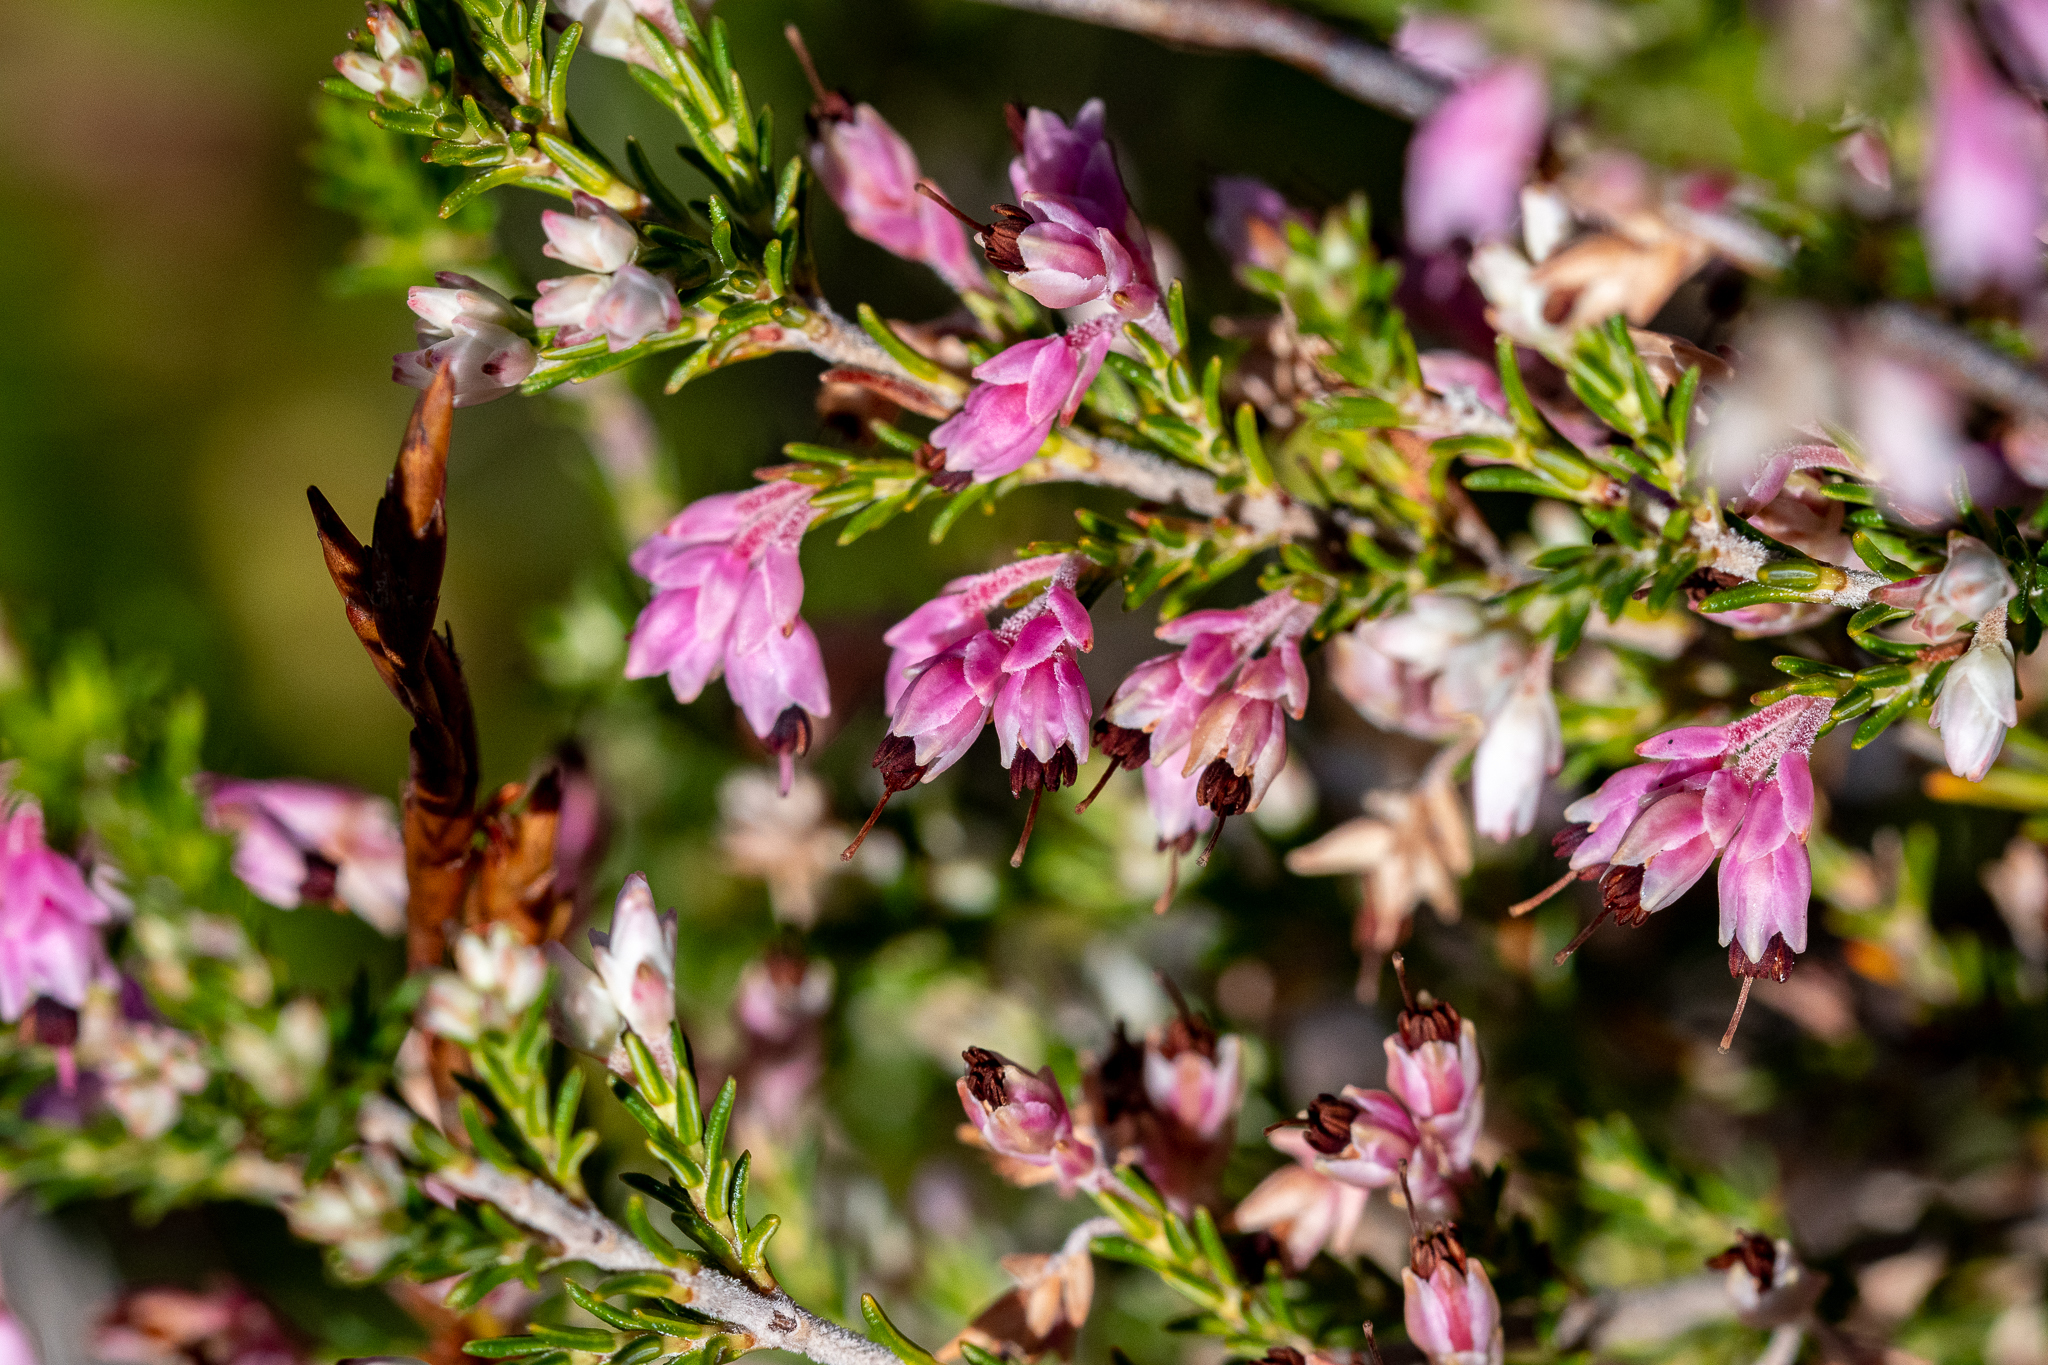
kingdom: Plantae
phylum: Tracheophyta
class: Magnoliopsida
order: Ericales
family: Ericaceae
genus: Erica
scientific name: Erica placentiflora
